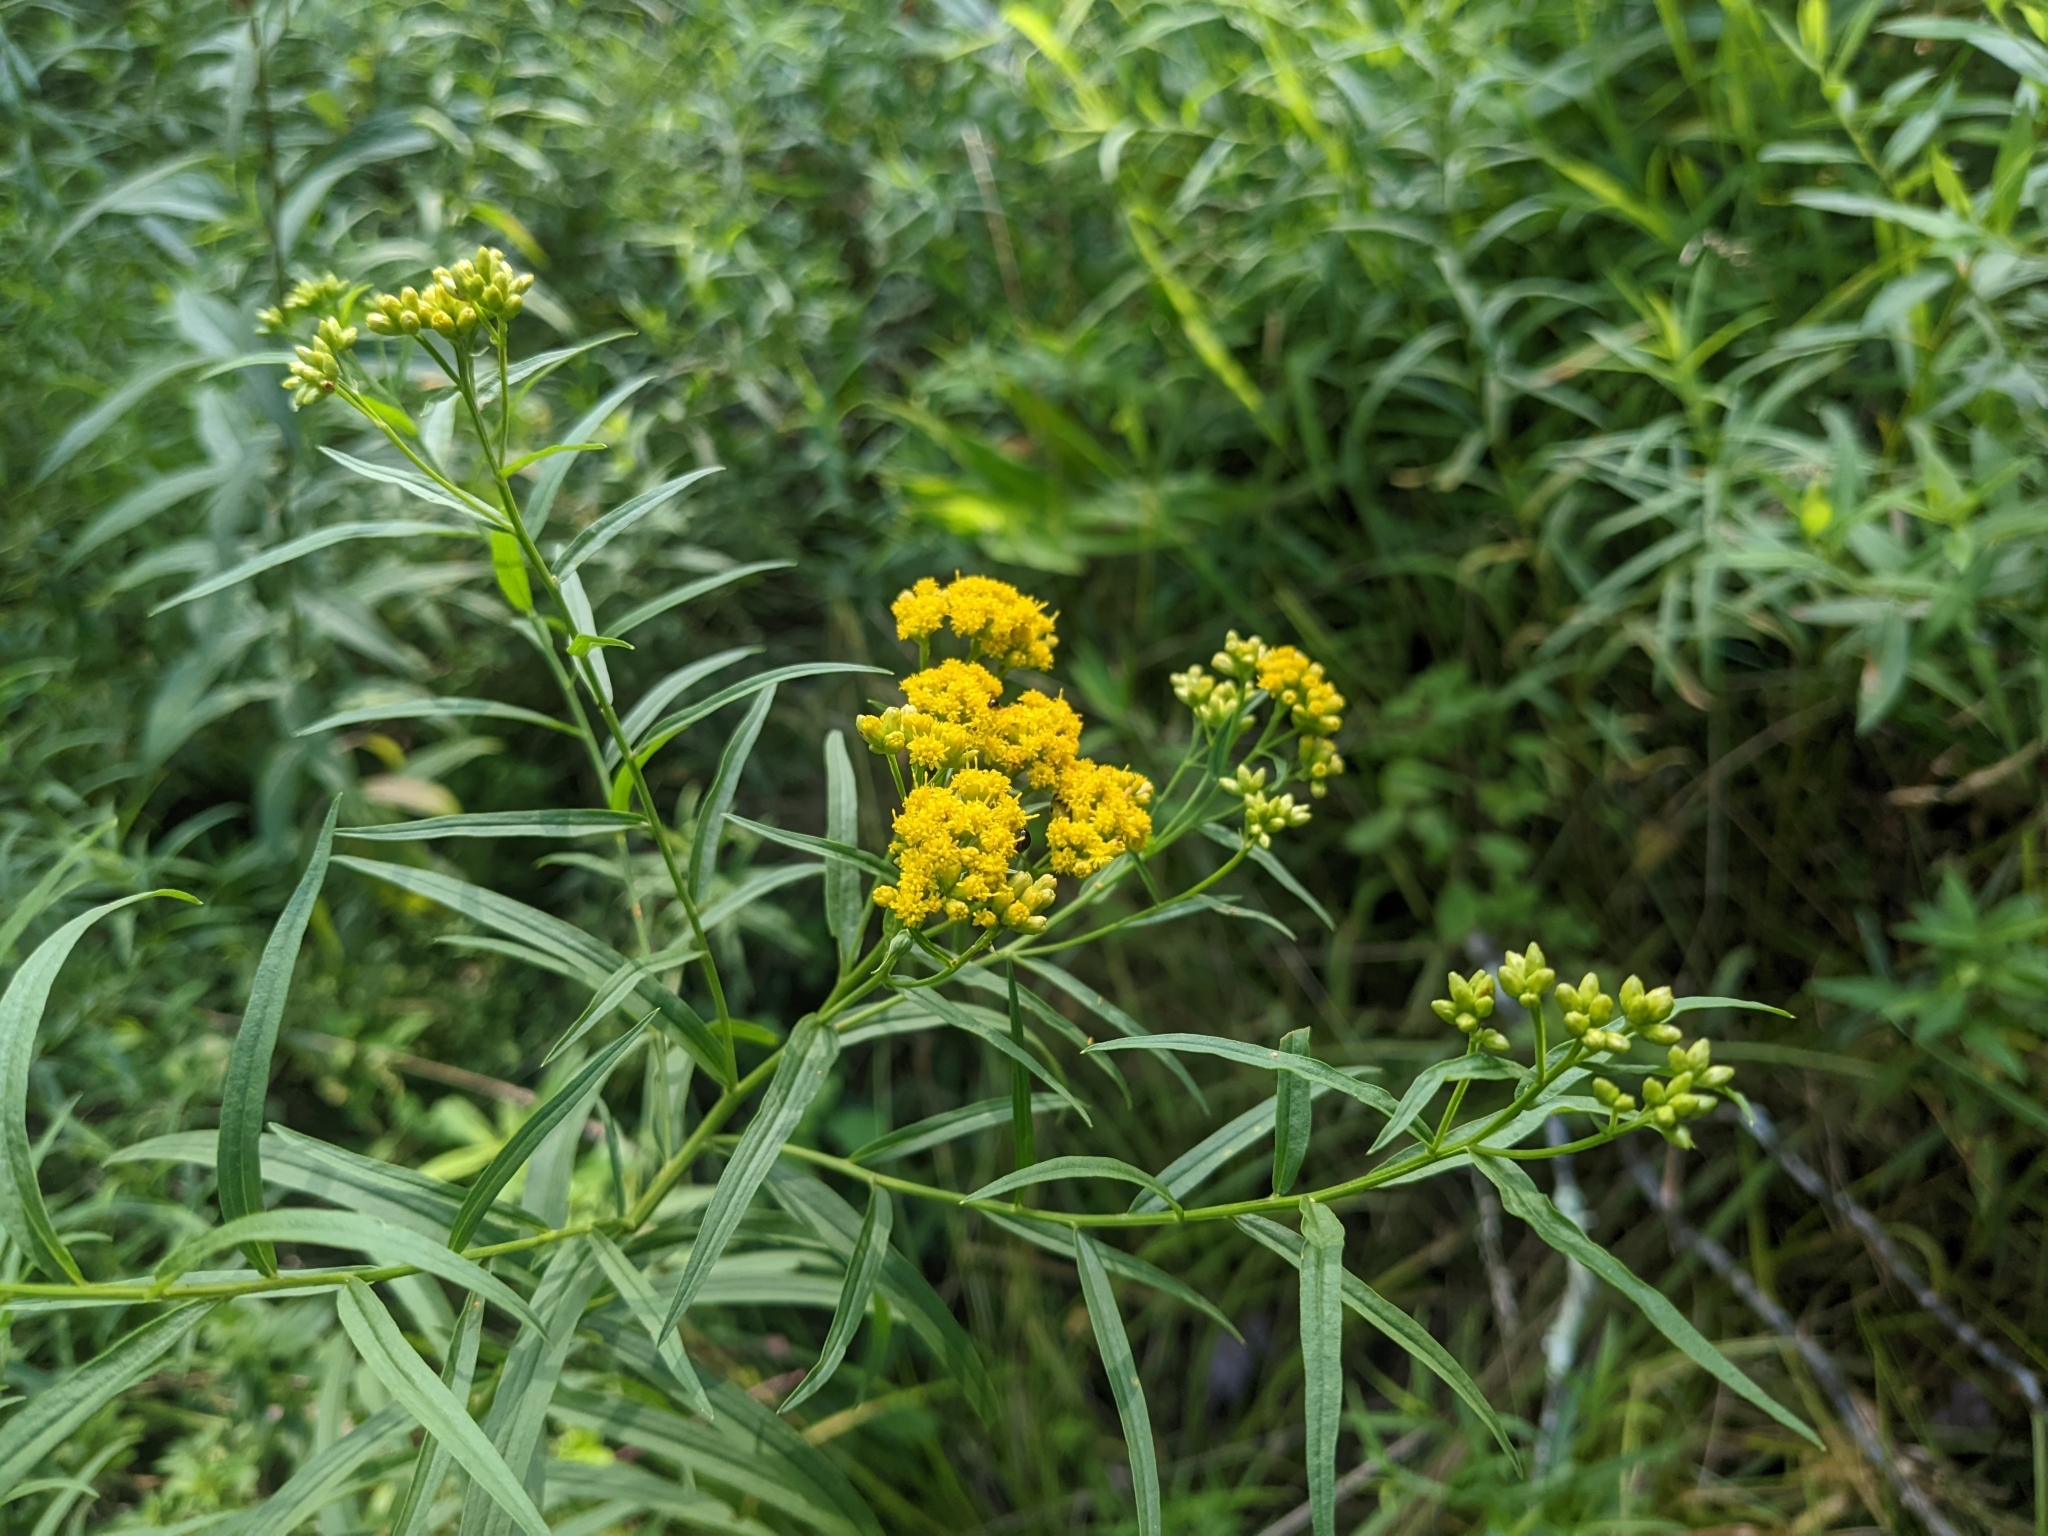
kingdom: Plantae
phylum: Tracheophyta
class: Magnoliopsida
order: Asterales
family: Asteraceae
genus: Euthamia
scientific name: Euthamia graminifolia
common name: Common goldentop
